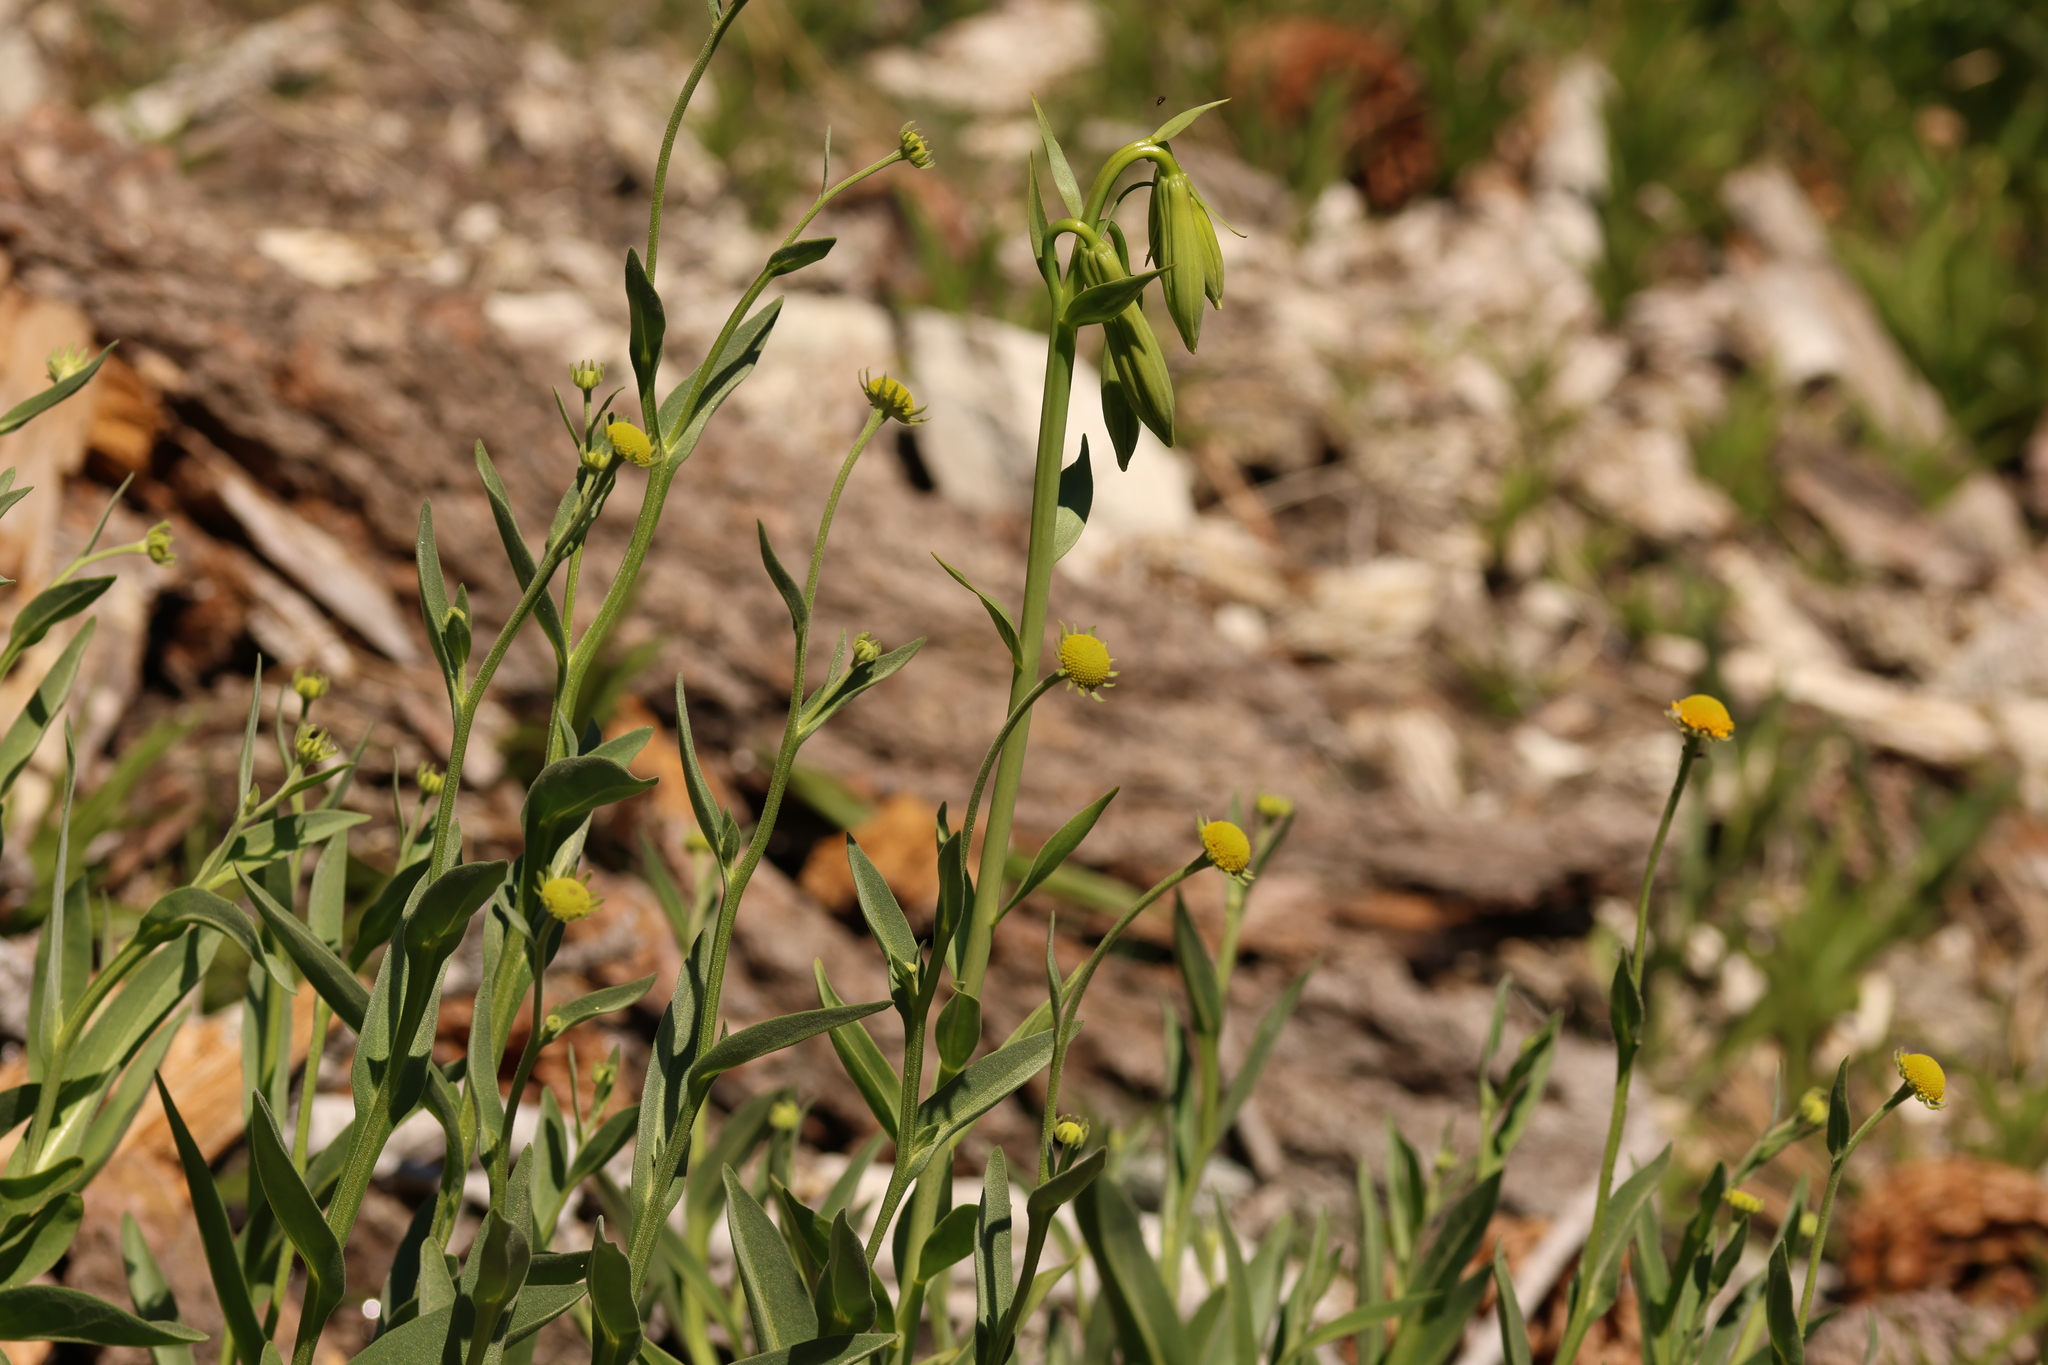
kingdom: Plantae
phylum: Tracheophyta
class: Liliopsida
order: Liliales
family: Liliaceae
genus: Lilium
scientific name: Lilium parryi
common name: Lemon lily
